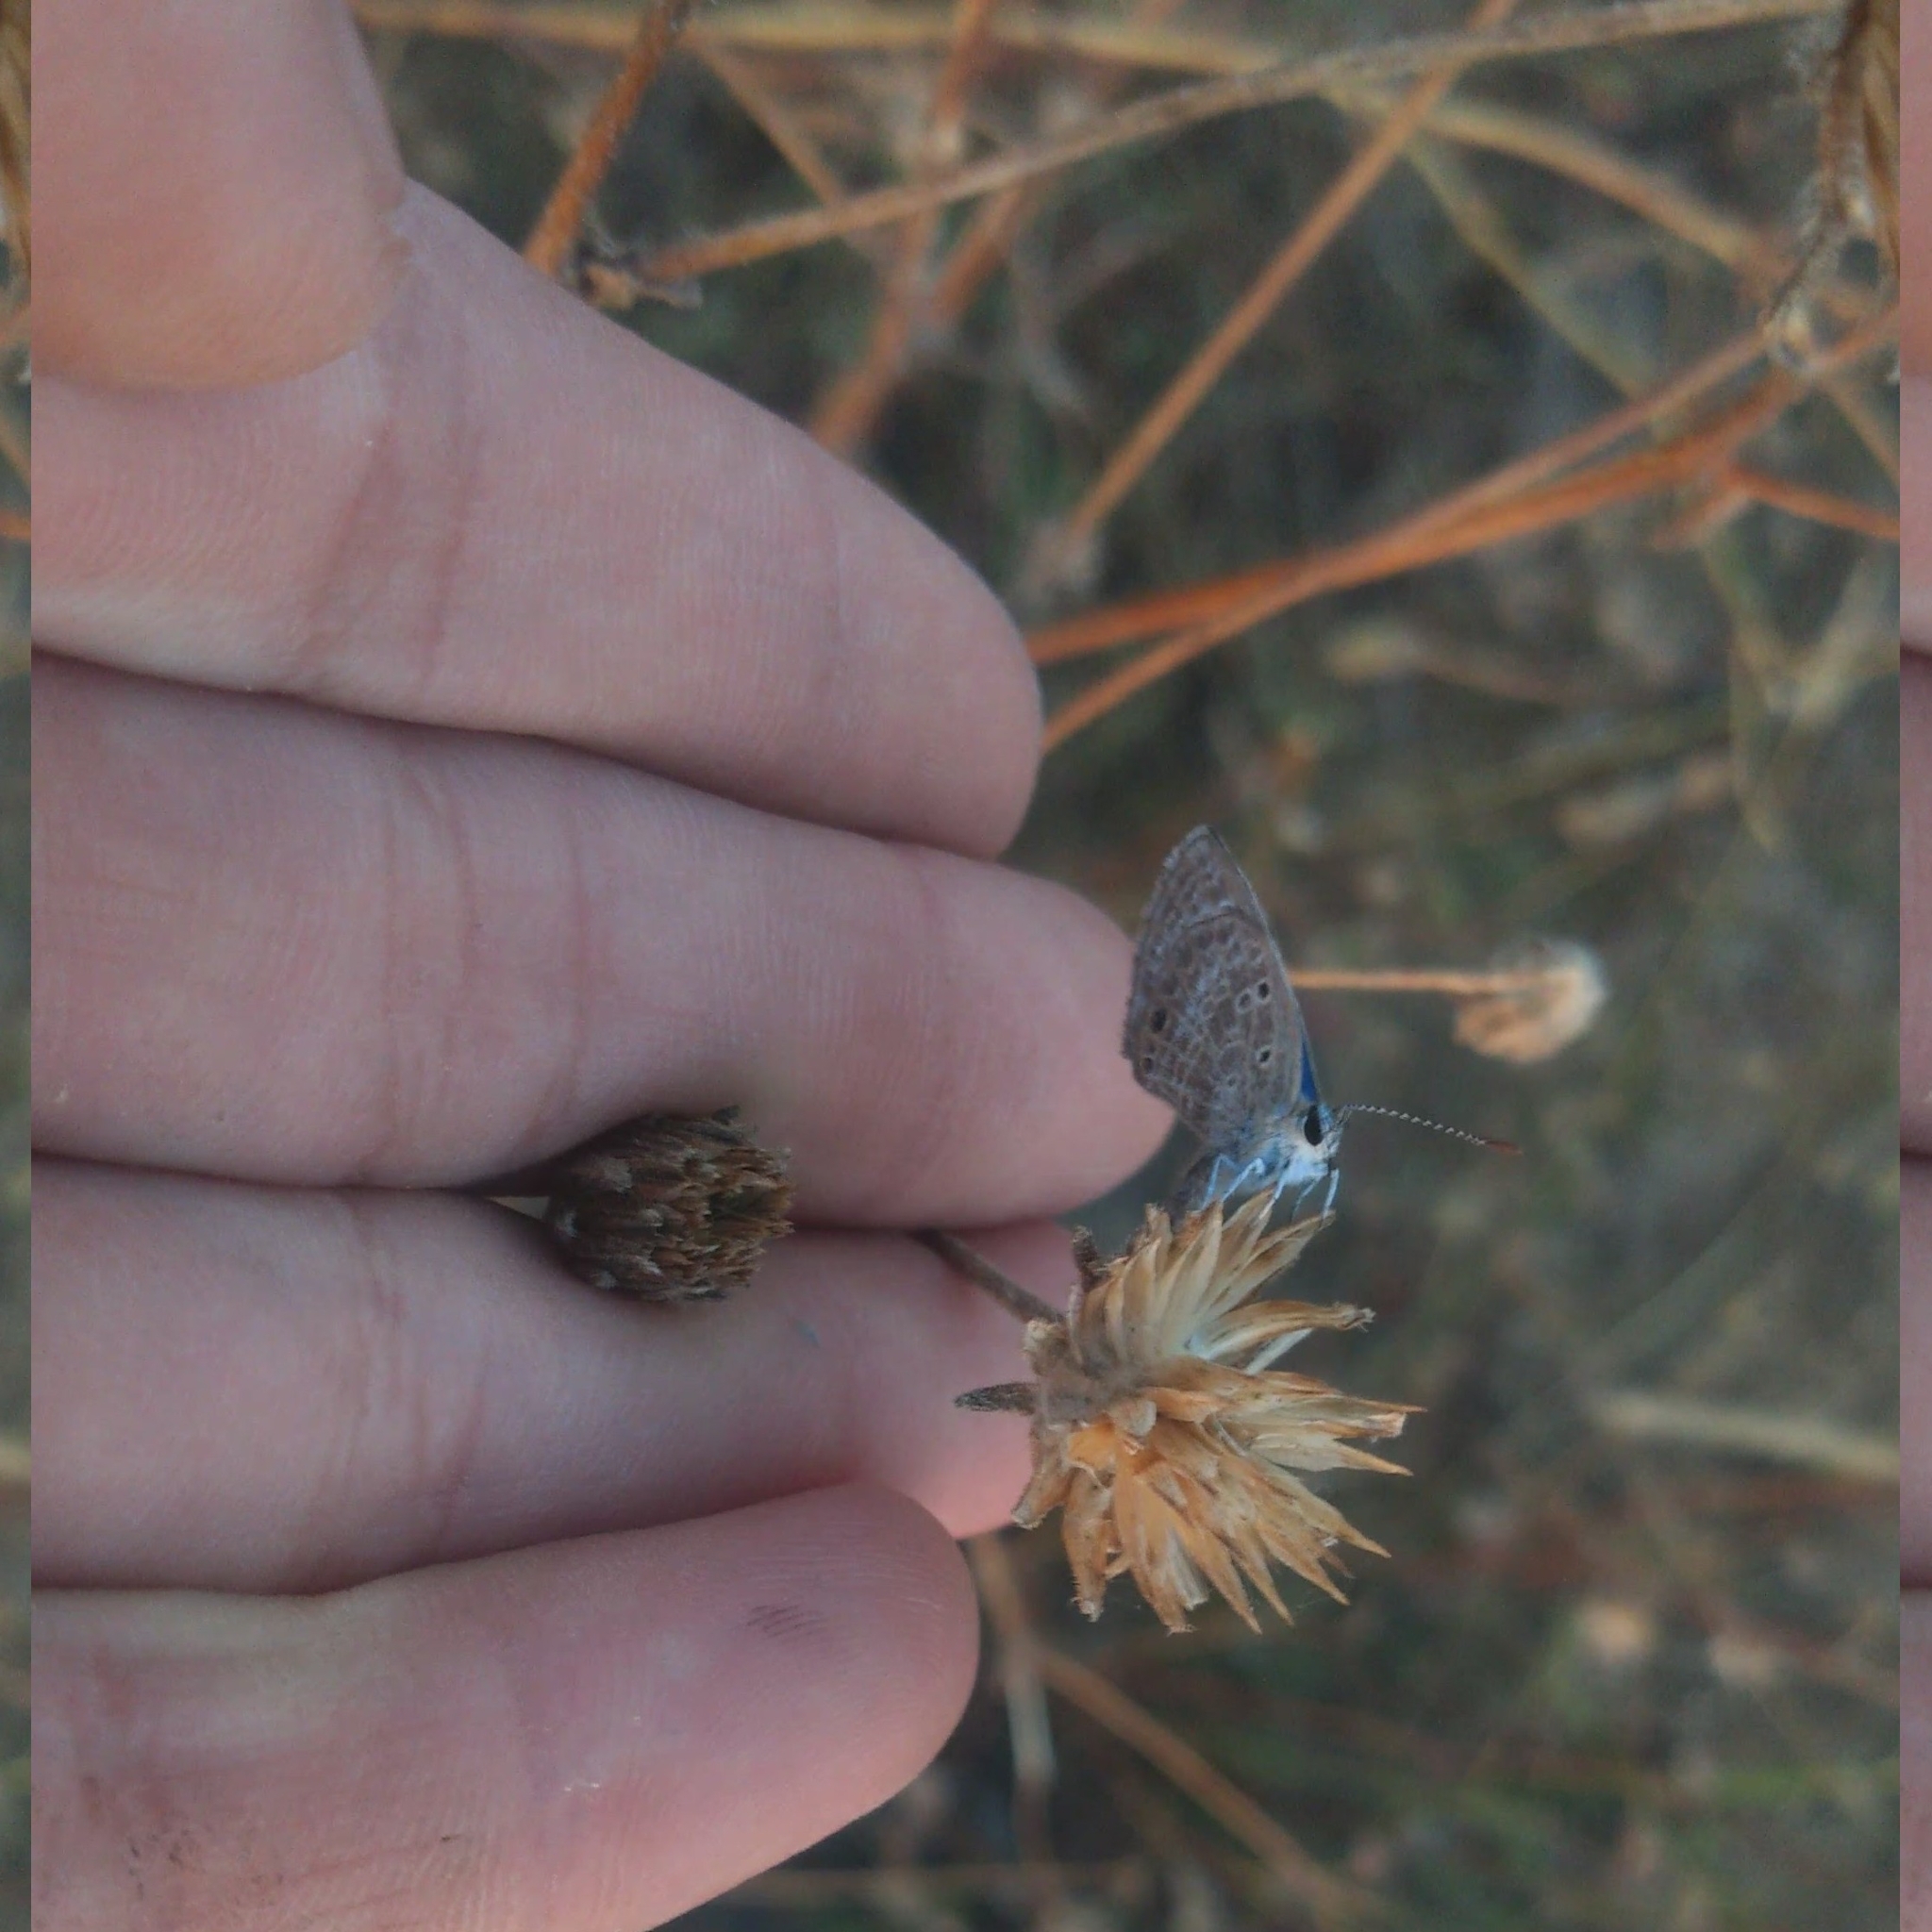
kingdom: Animalia
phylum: Arthropoda
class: Insecta
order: Lepidoptera
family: Lycaenidae
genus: Echinargus
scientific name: Echinargus isola
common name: Reakirt's blue
